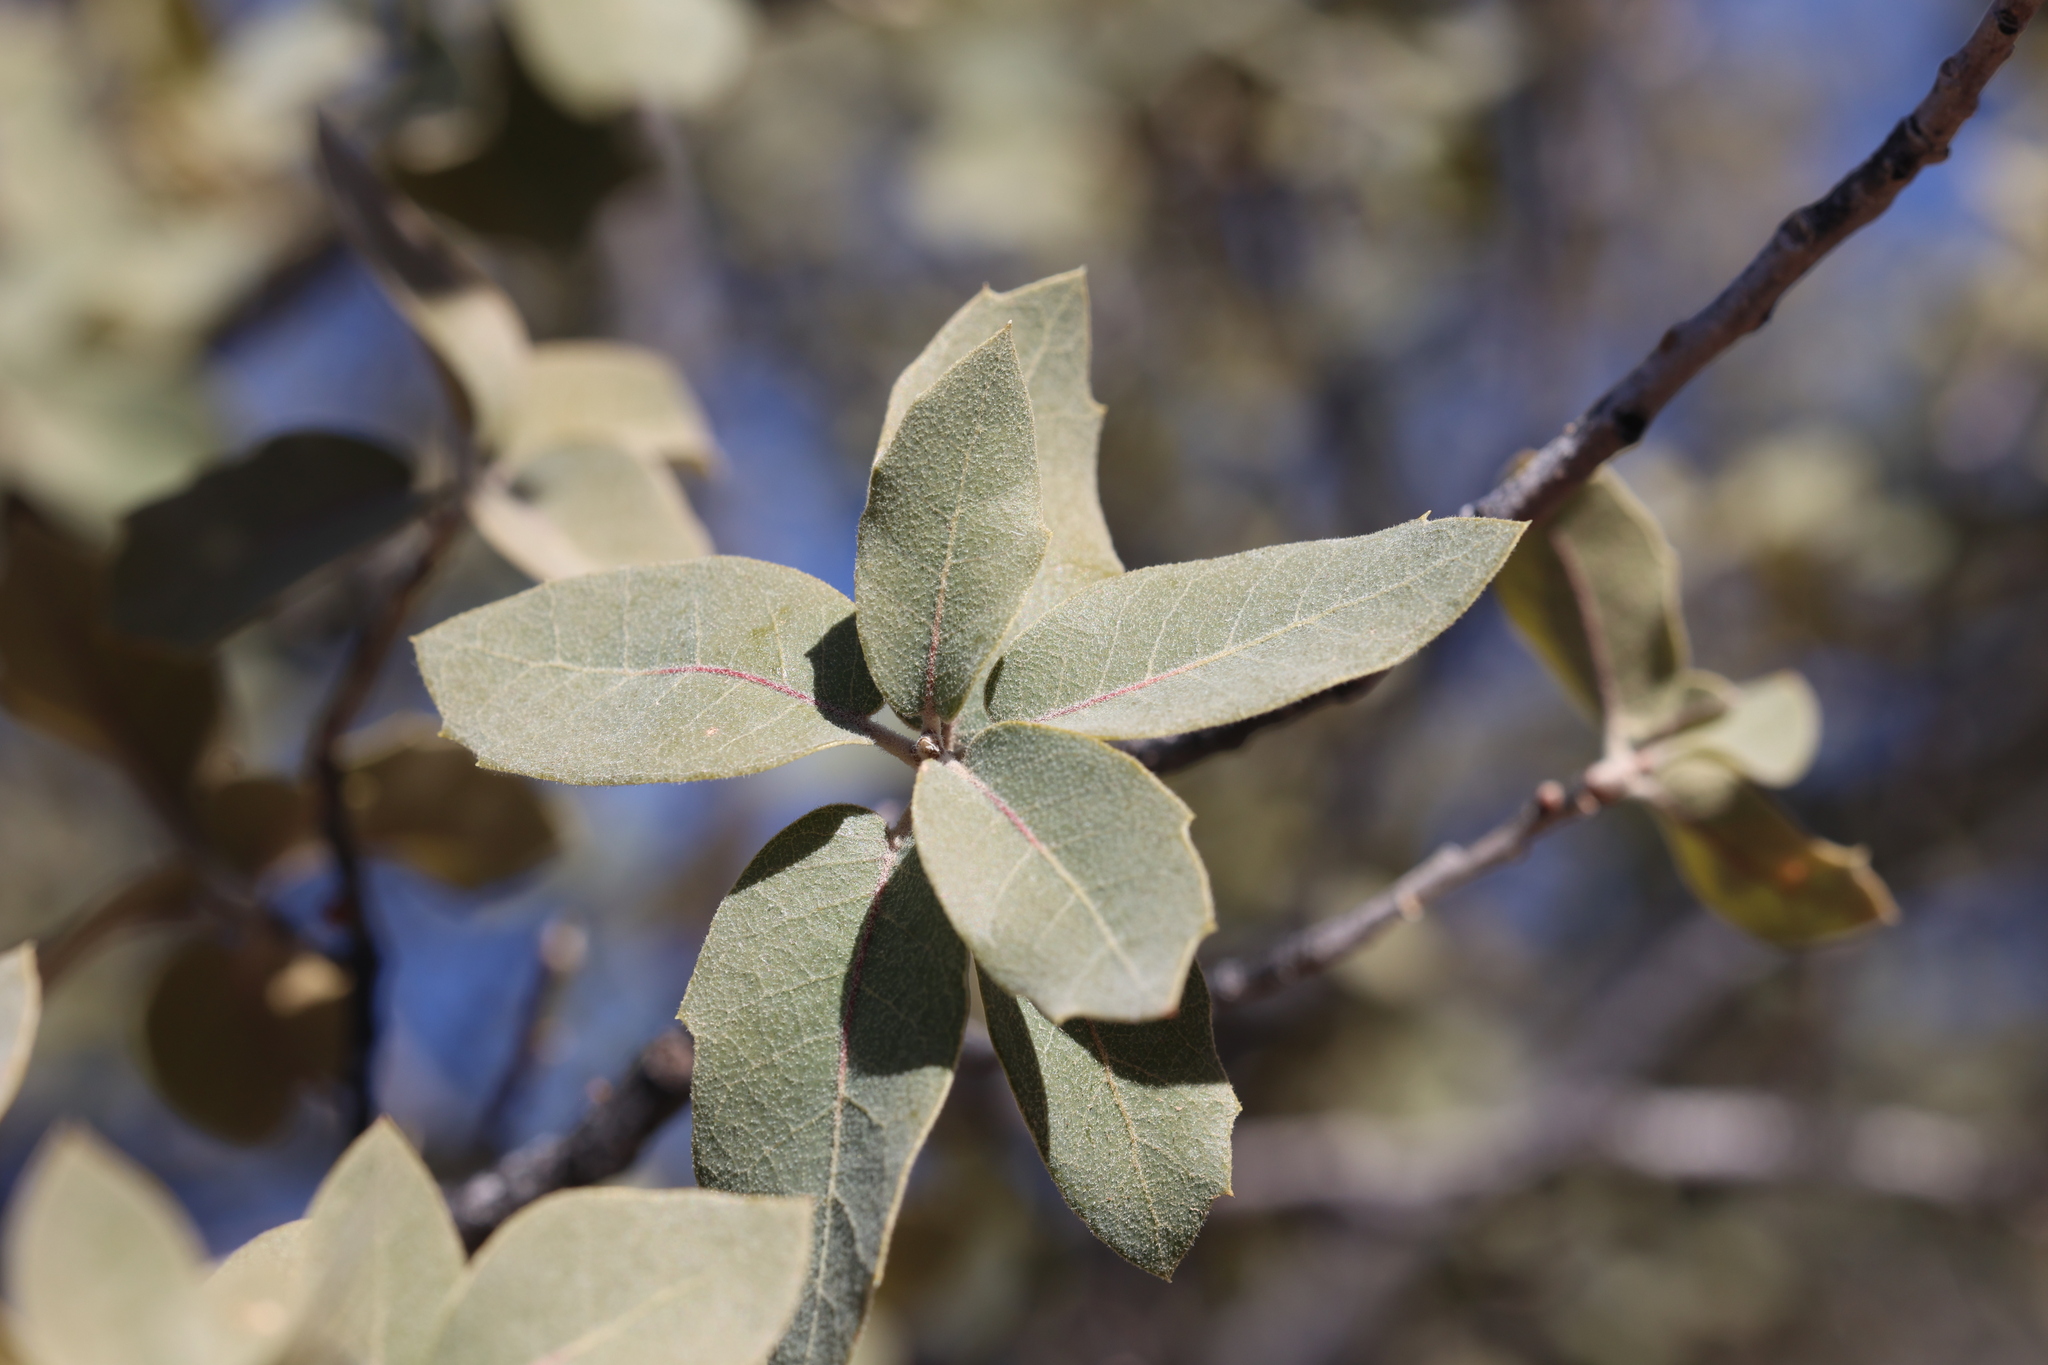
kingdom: Plantae
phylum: Tracheophyta
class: Magnoliopsida
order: Fagales
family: Fagaceae
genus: Quercus
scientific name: Quercus grisea
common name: Gray oak
